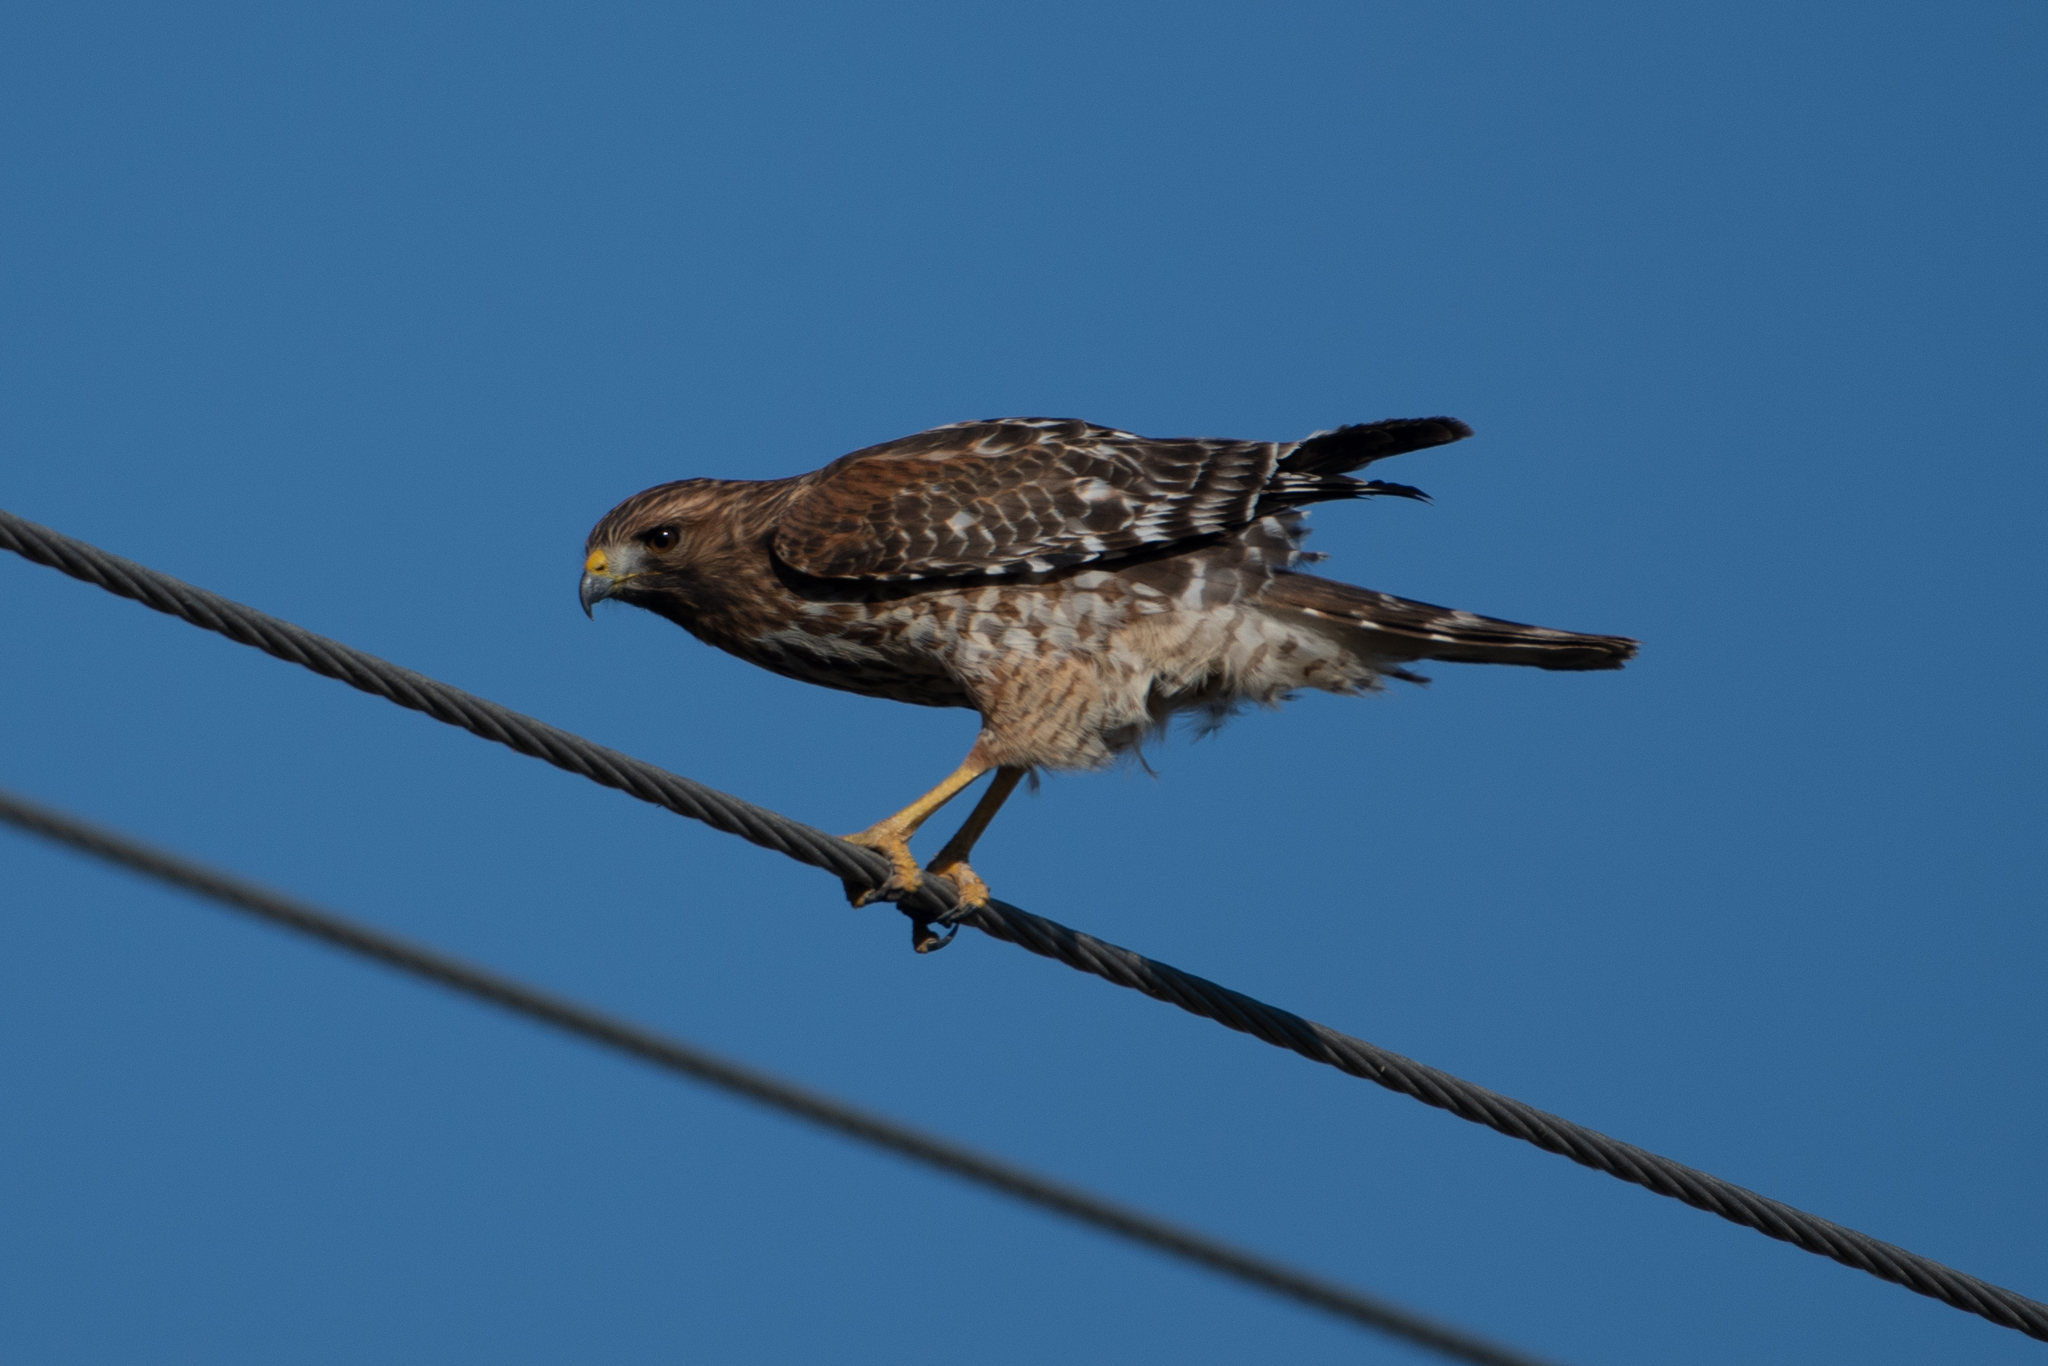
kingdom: Animalia
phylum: Chordata
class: Aves
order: Accipitriformes
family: Accipitridae
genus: Buteo
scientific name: Buteo lineatus
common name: Red-shouldered hawk
